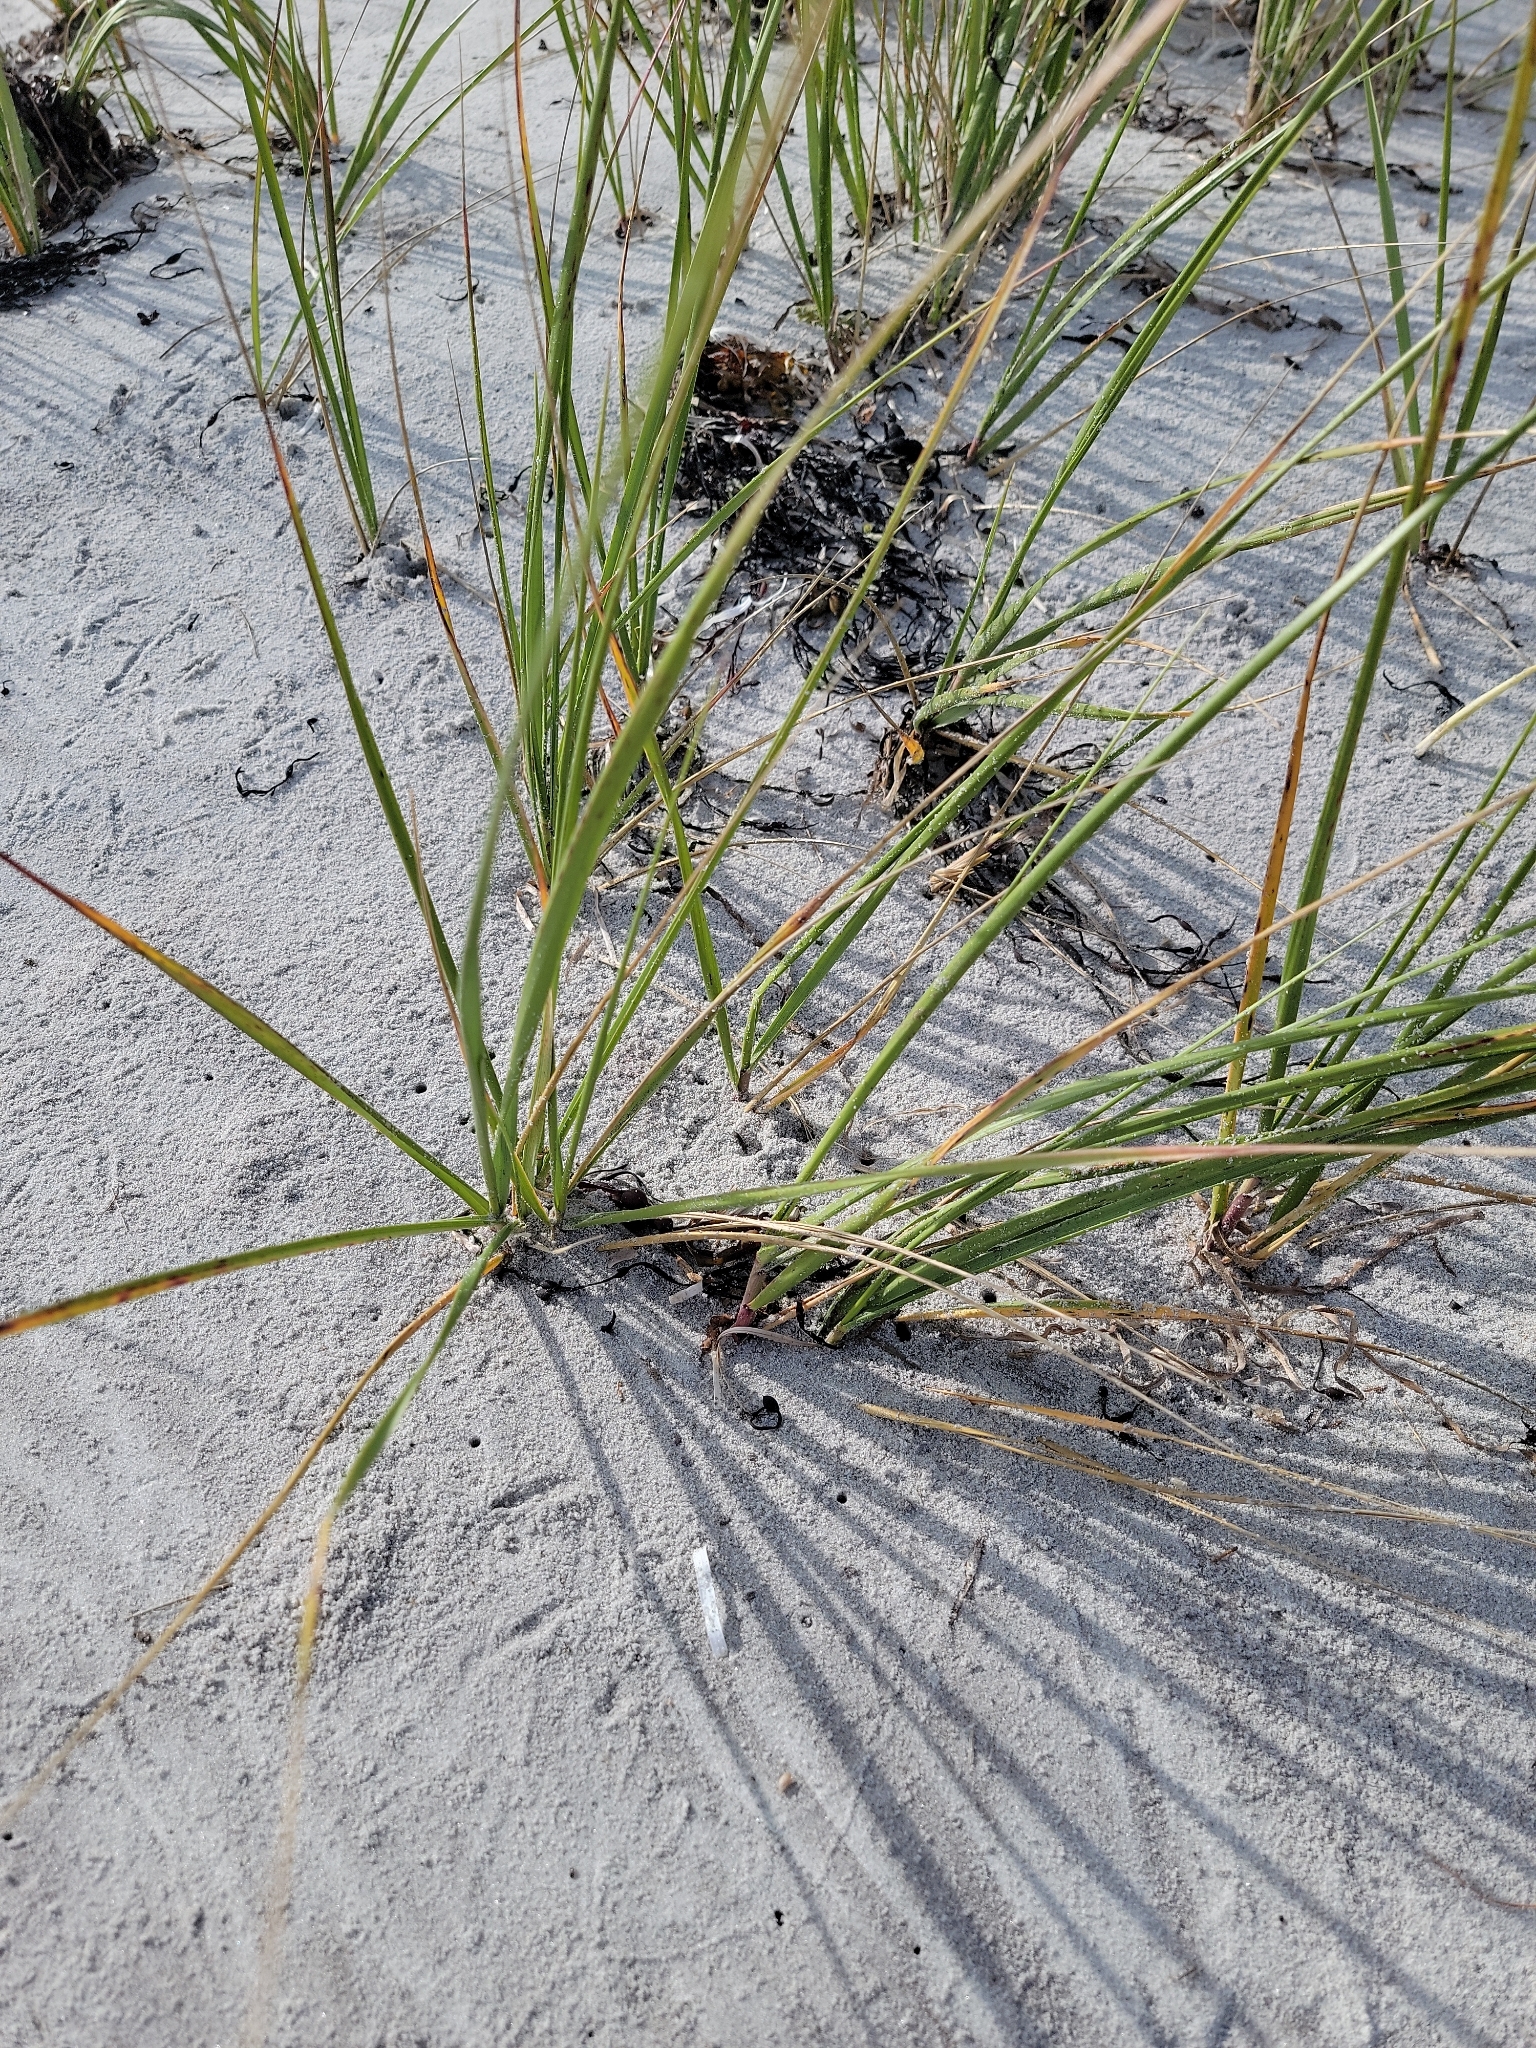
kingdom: Plantae
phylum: Tracheophyta
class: Liliopsida
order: Poales
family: Poaceae
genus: Calamagrostis
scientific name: Calamagrostis breviligulata
